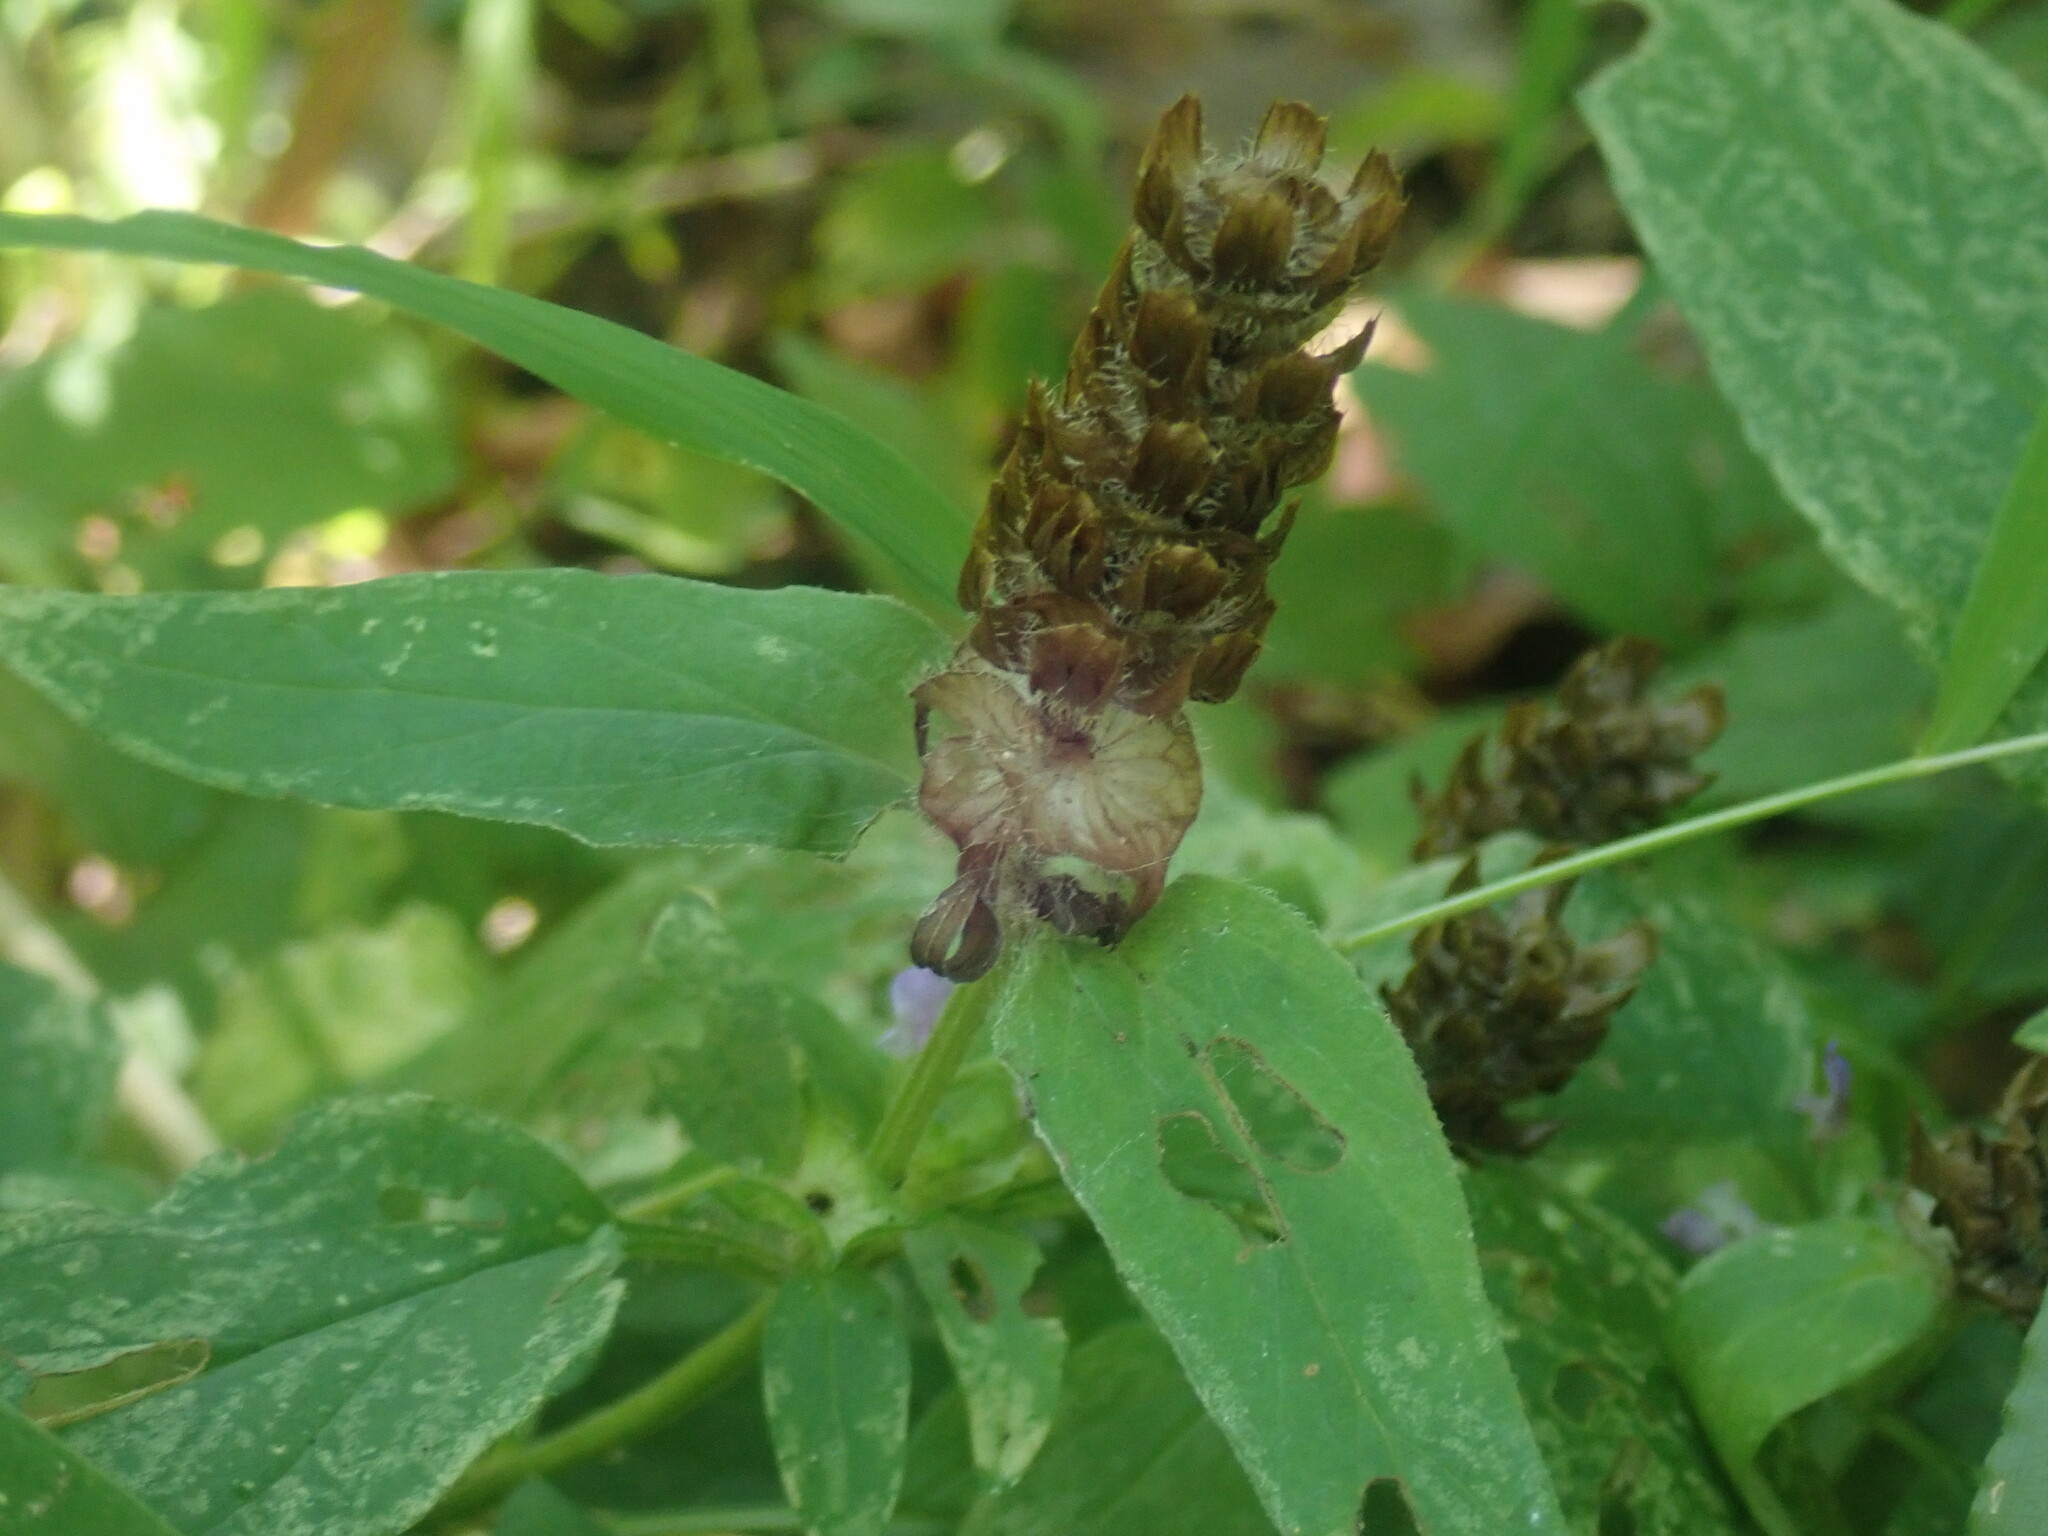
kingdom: Plantae
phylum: Tracheophyta
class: Magnoliopsida
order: Lamiales
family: Lamiaceae
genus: Prunella
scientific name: Prunella vulgaris
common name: Heal-all
